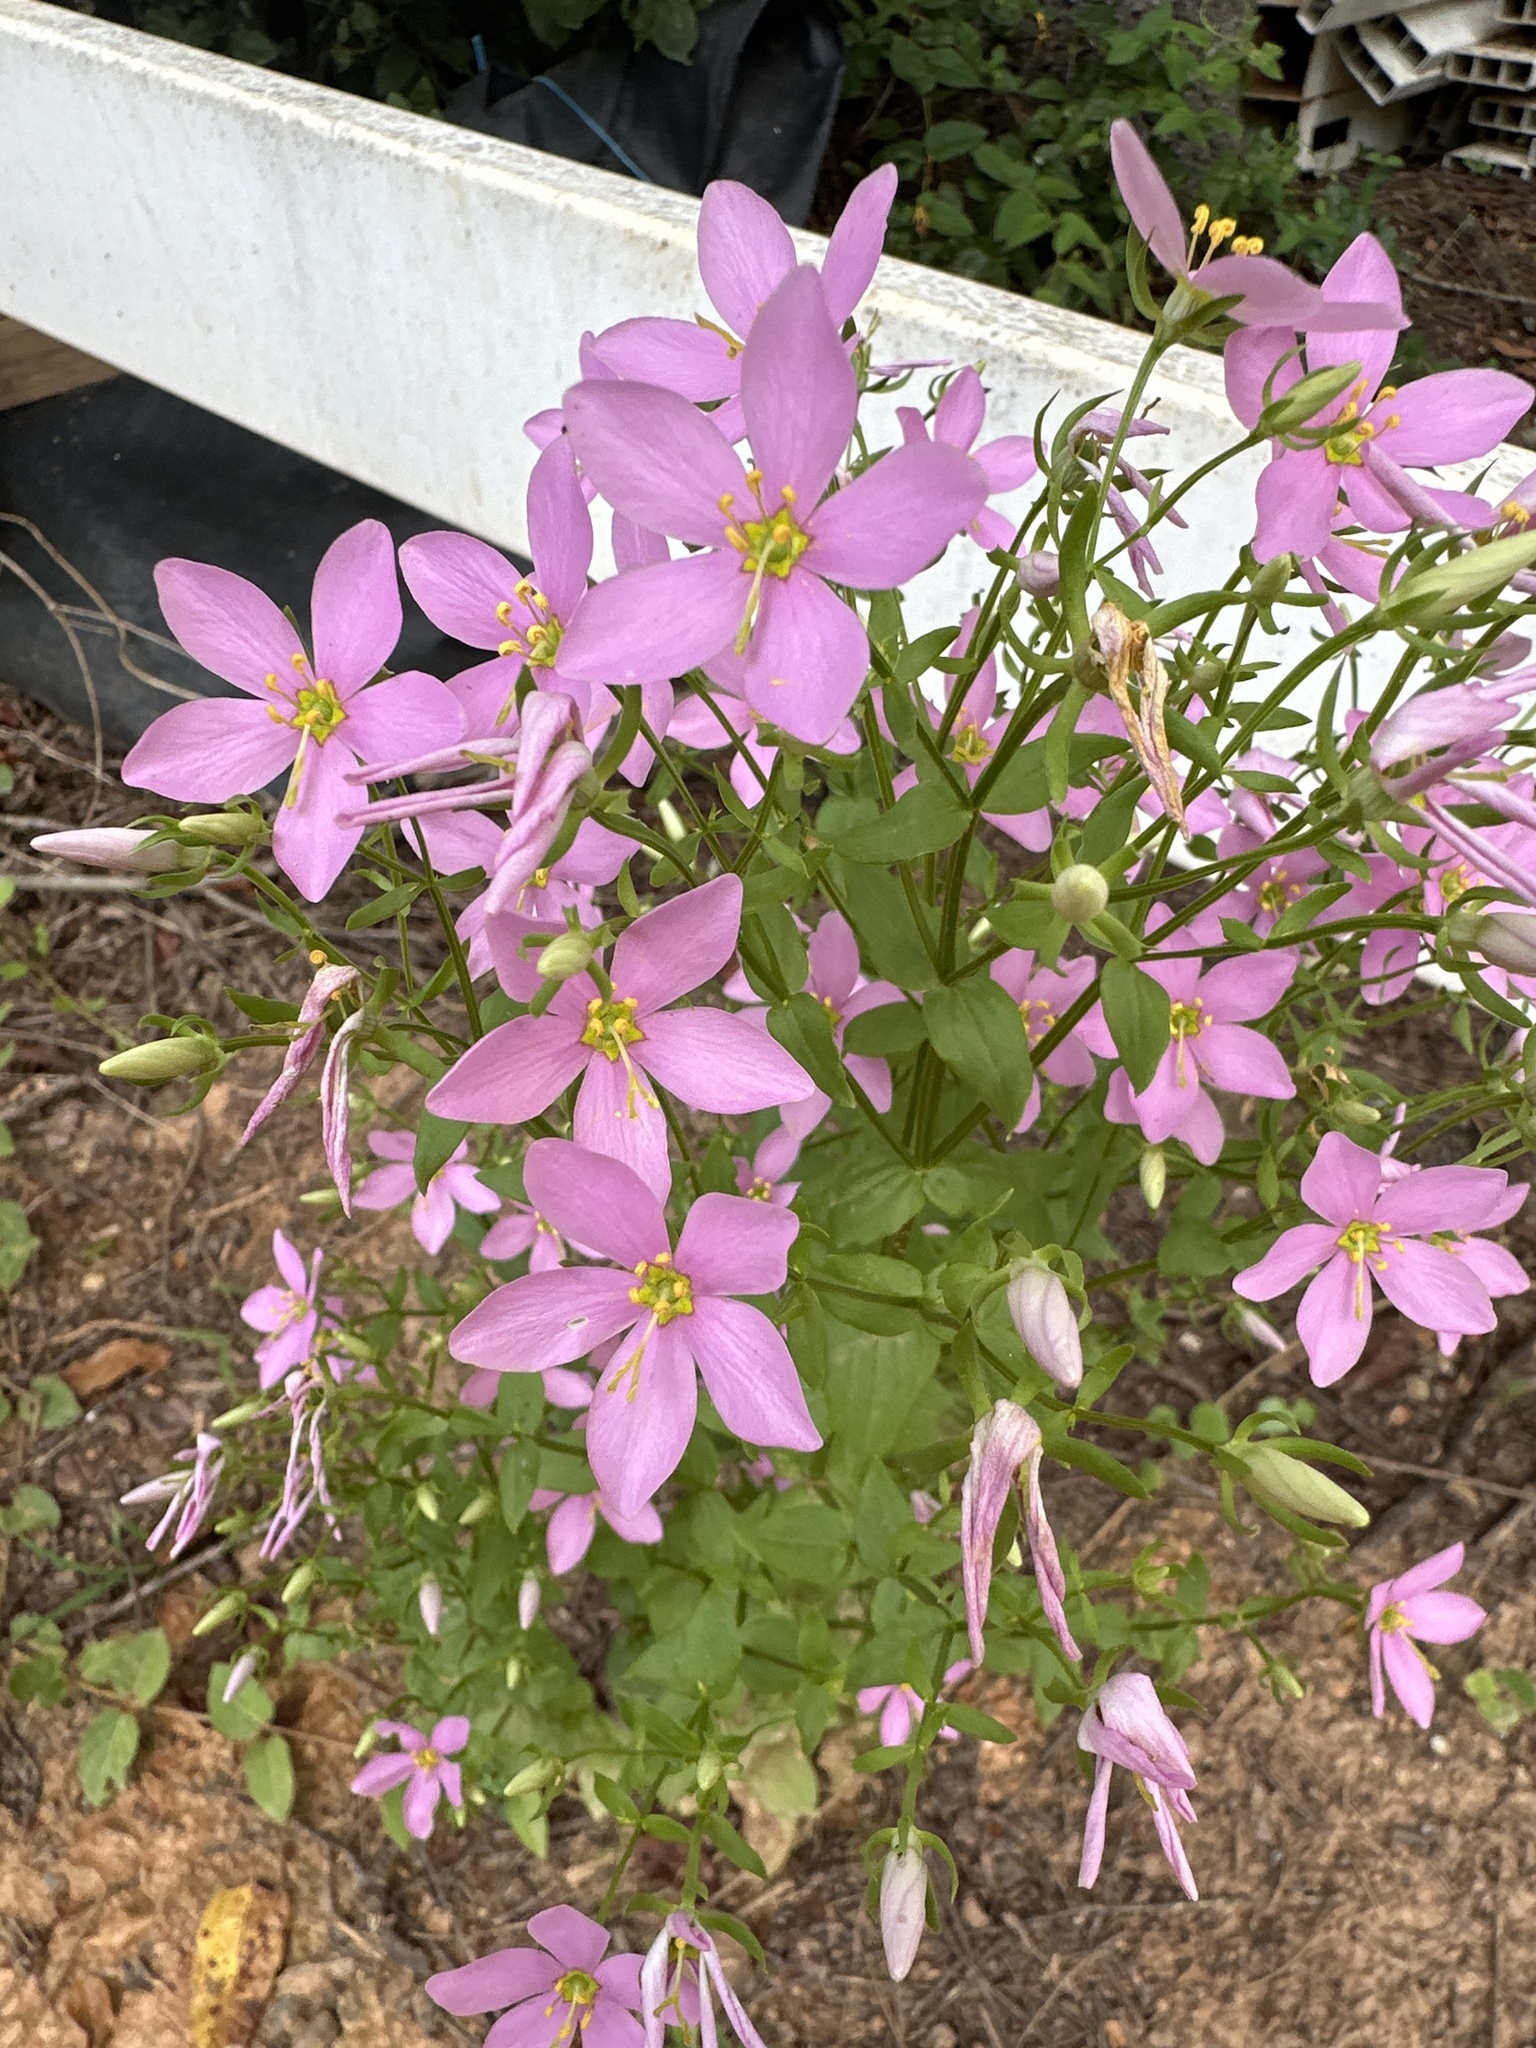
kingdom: Plantae
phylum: Tracheophyta
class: Magnoliopsida
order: Gentianales
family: Gentianaceae
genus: Sabatia
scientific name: Sabatia angularis
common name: Rose-pink
